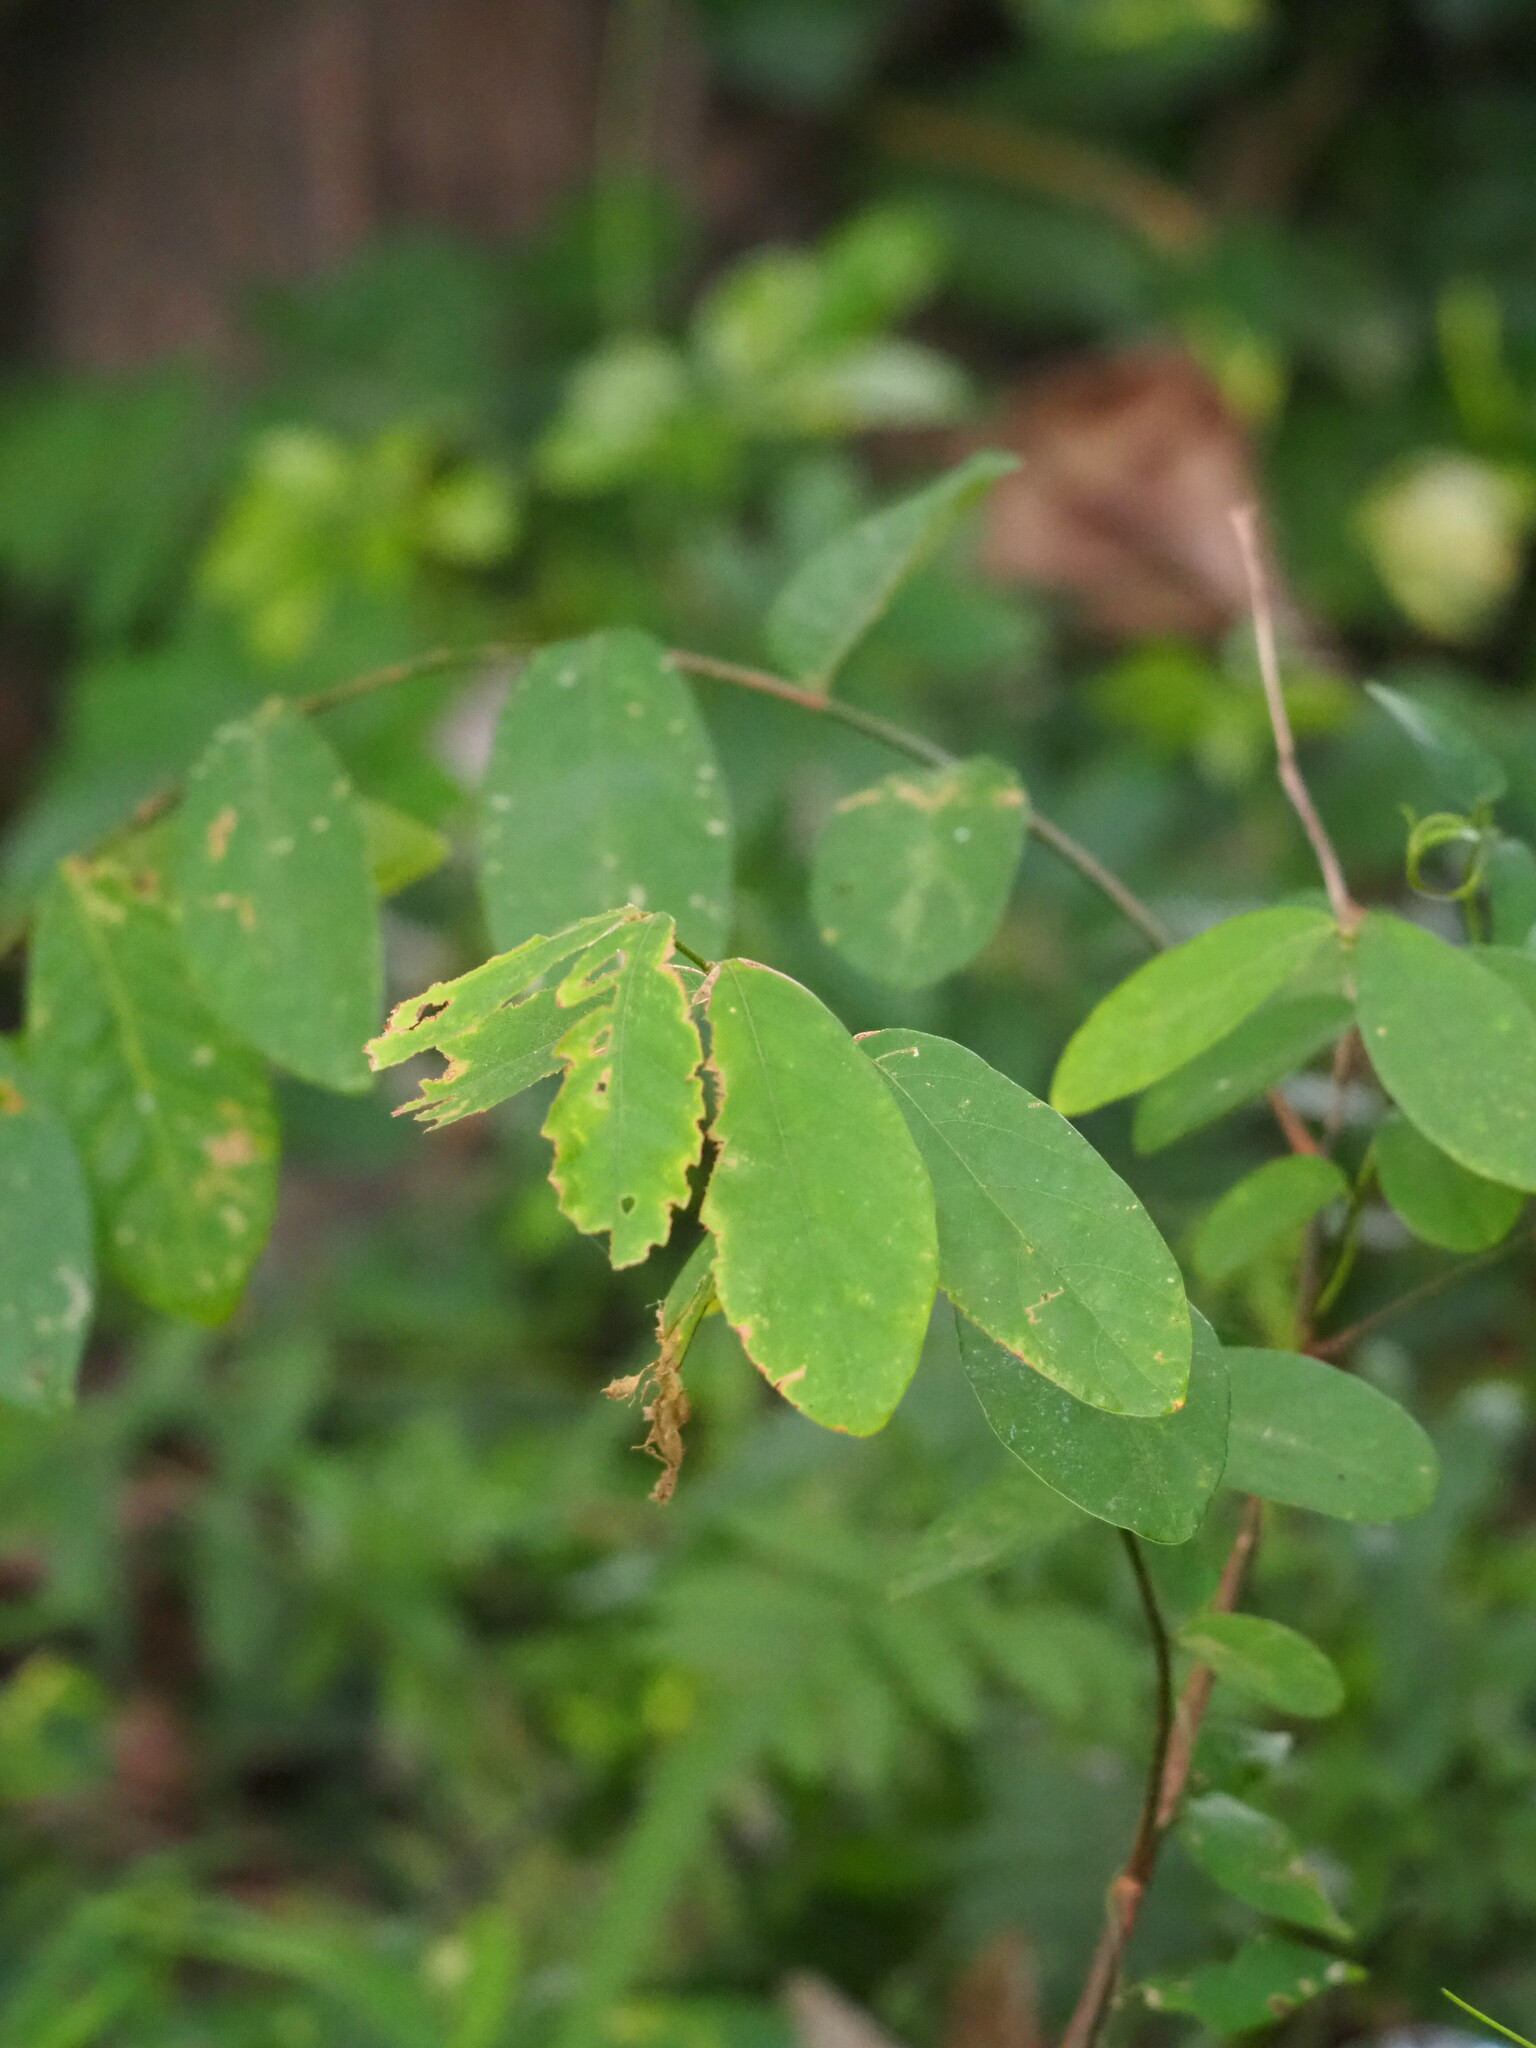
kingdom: Plantae
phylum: Tracheophyta
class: Magnoliopsida
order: Malpighiales
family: Phyllanthaceae
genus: Bridelia
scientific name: Bridelia tomentosa
